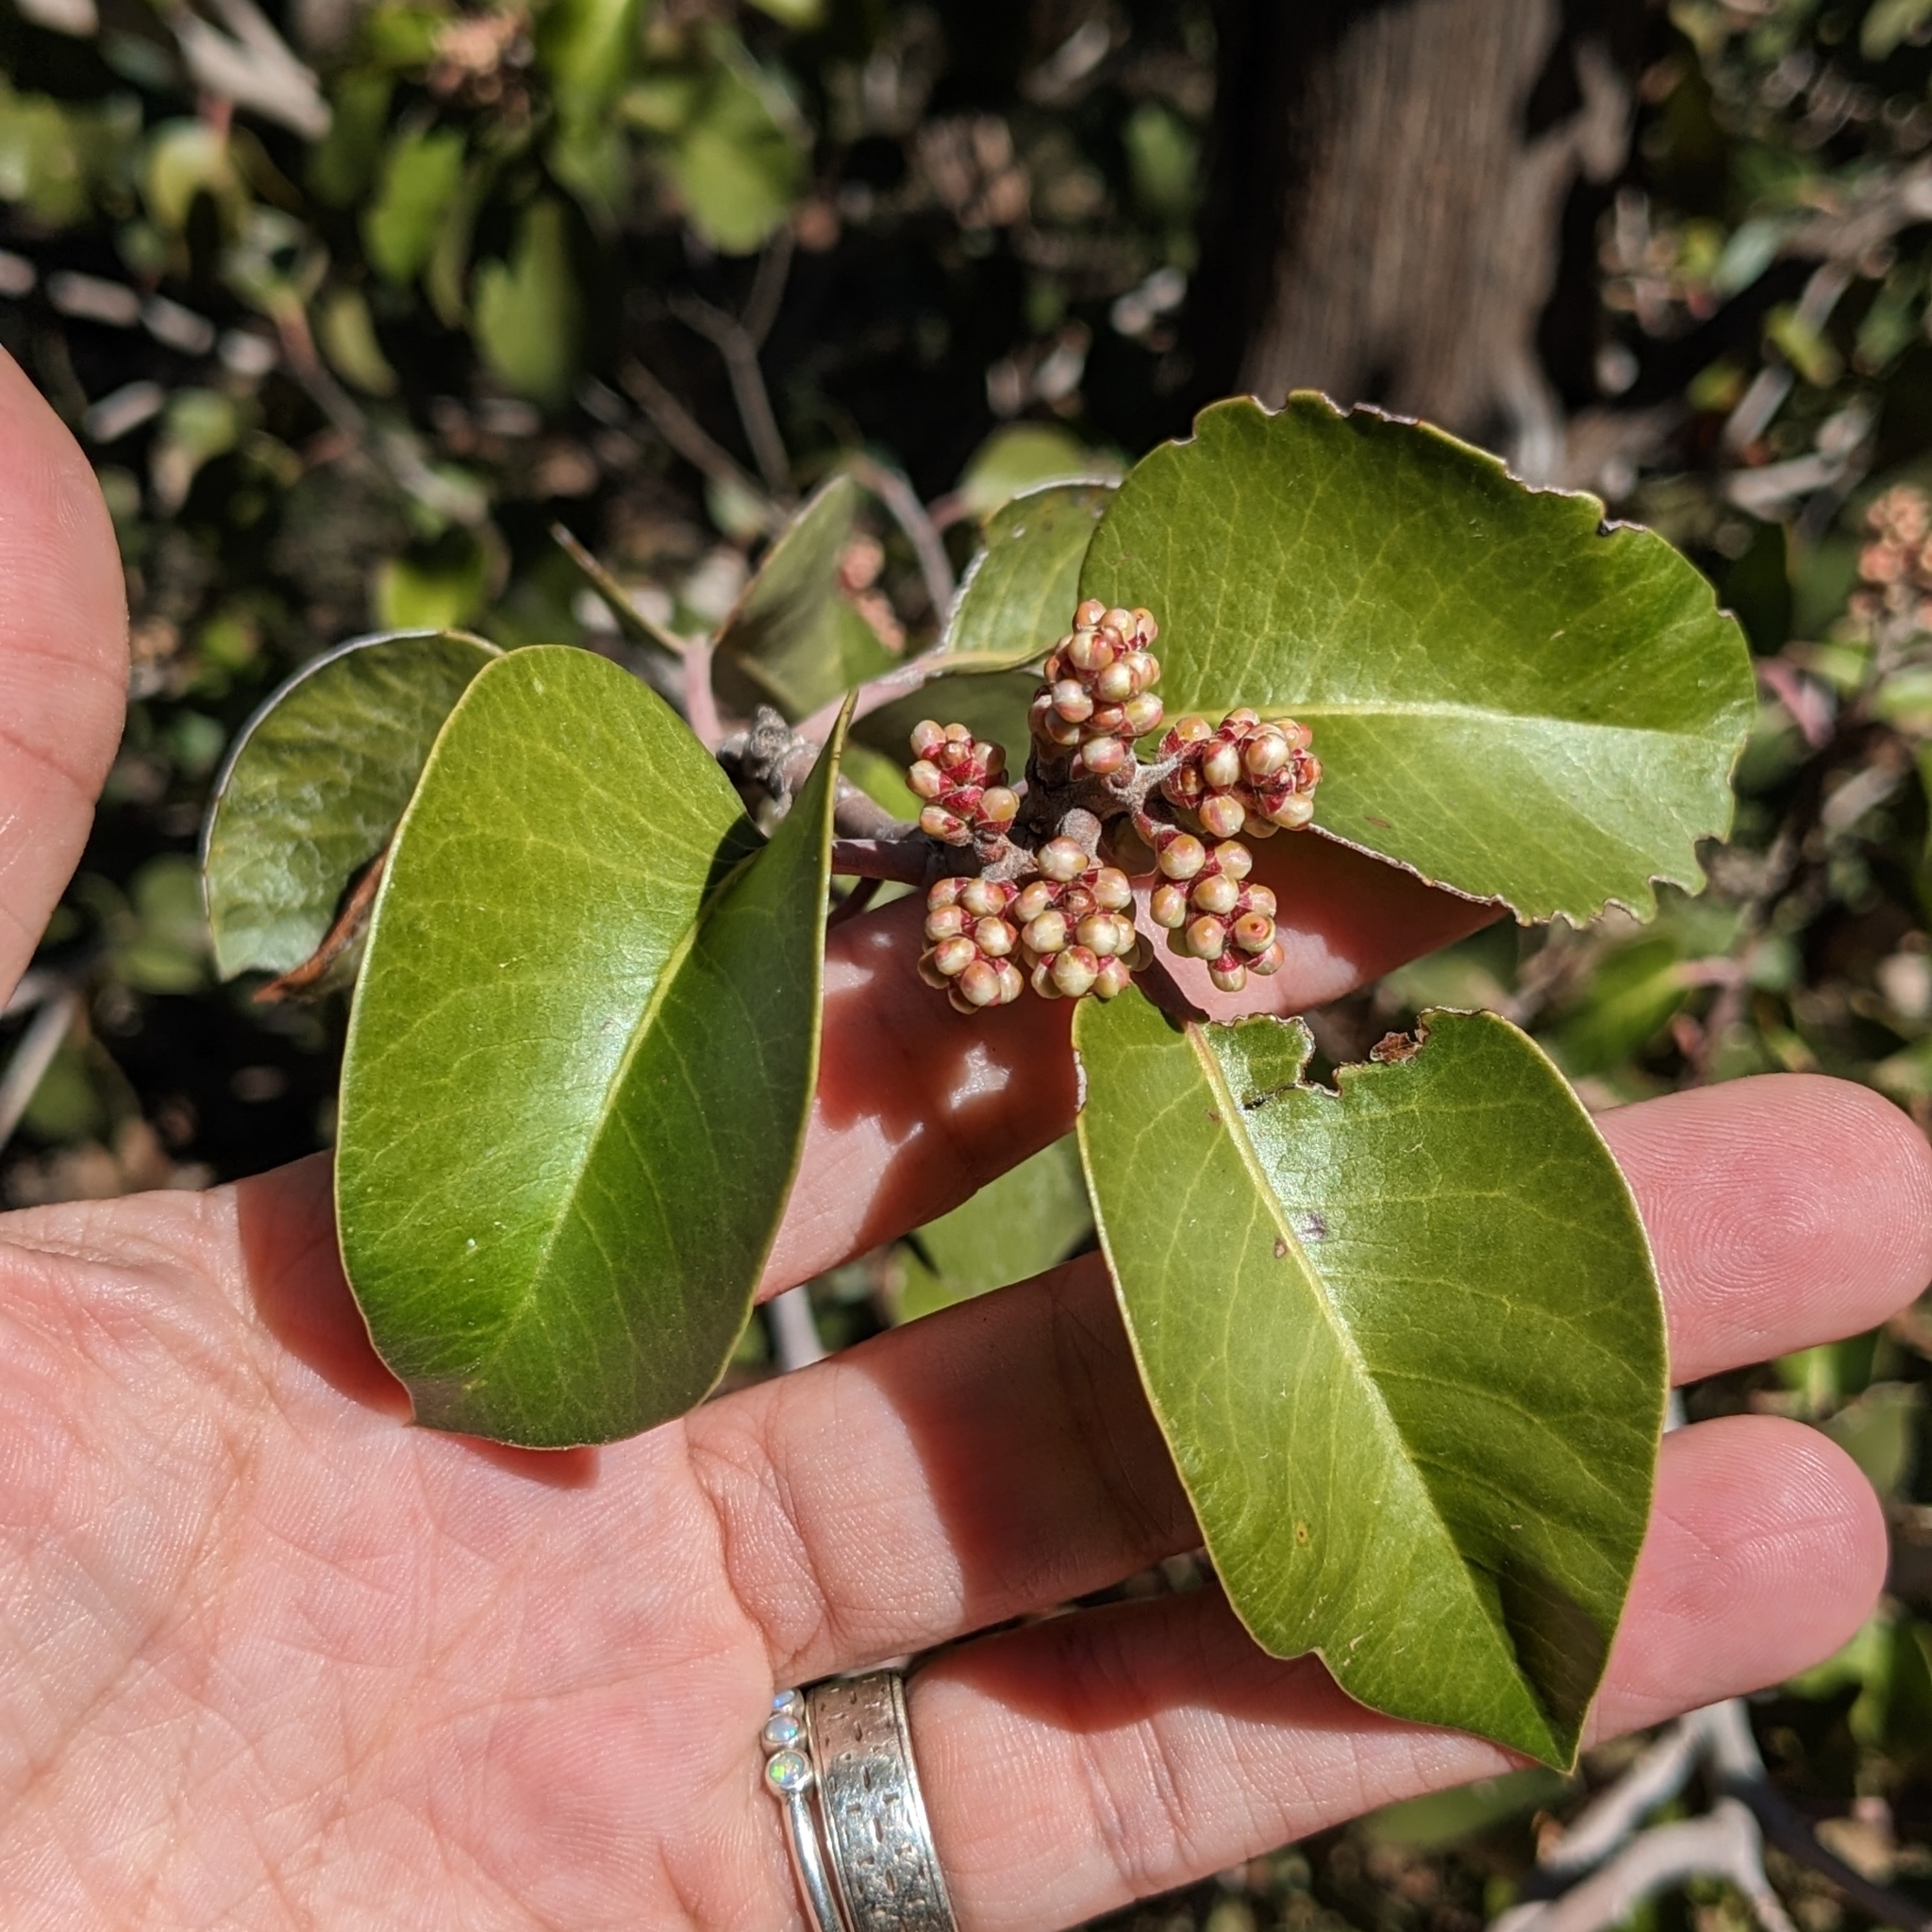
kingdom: Plantae
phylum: Tracheophyta
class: Magnoliopsida
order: Sapindales
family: Anacardiaceae
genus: Rhus
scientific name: Rhus ovata
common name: Sugar sumac
